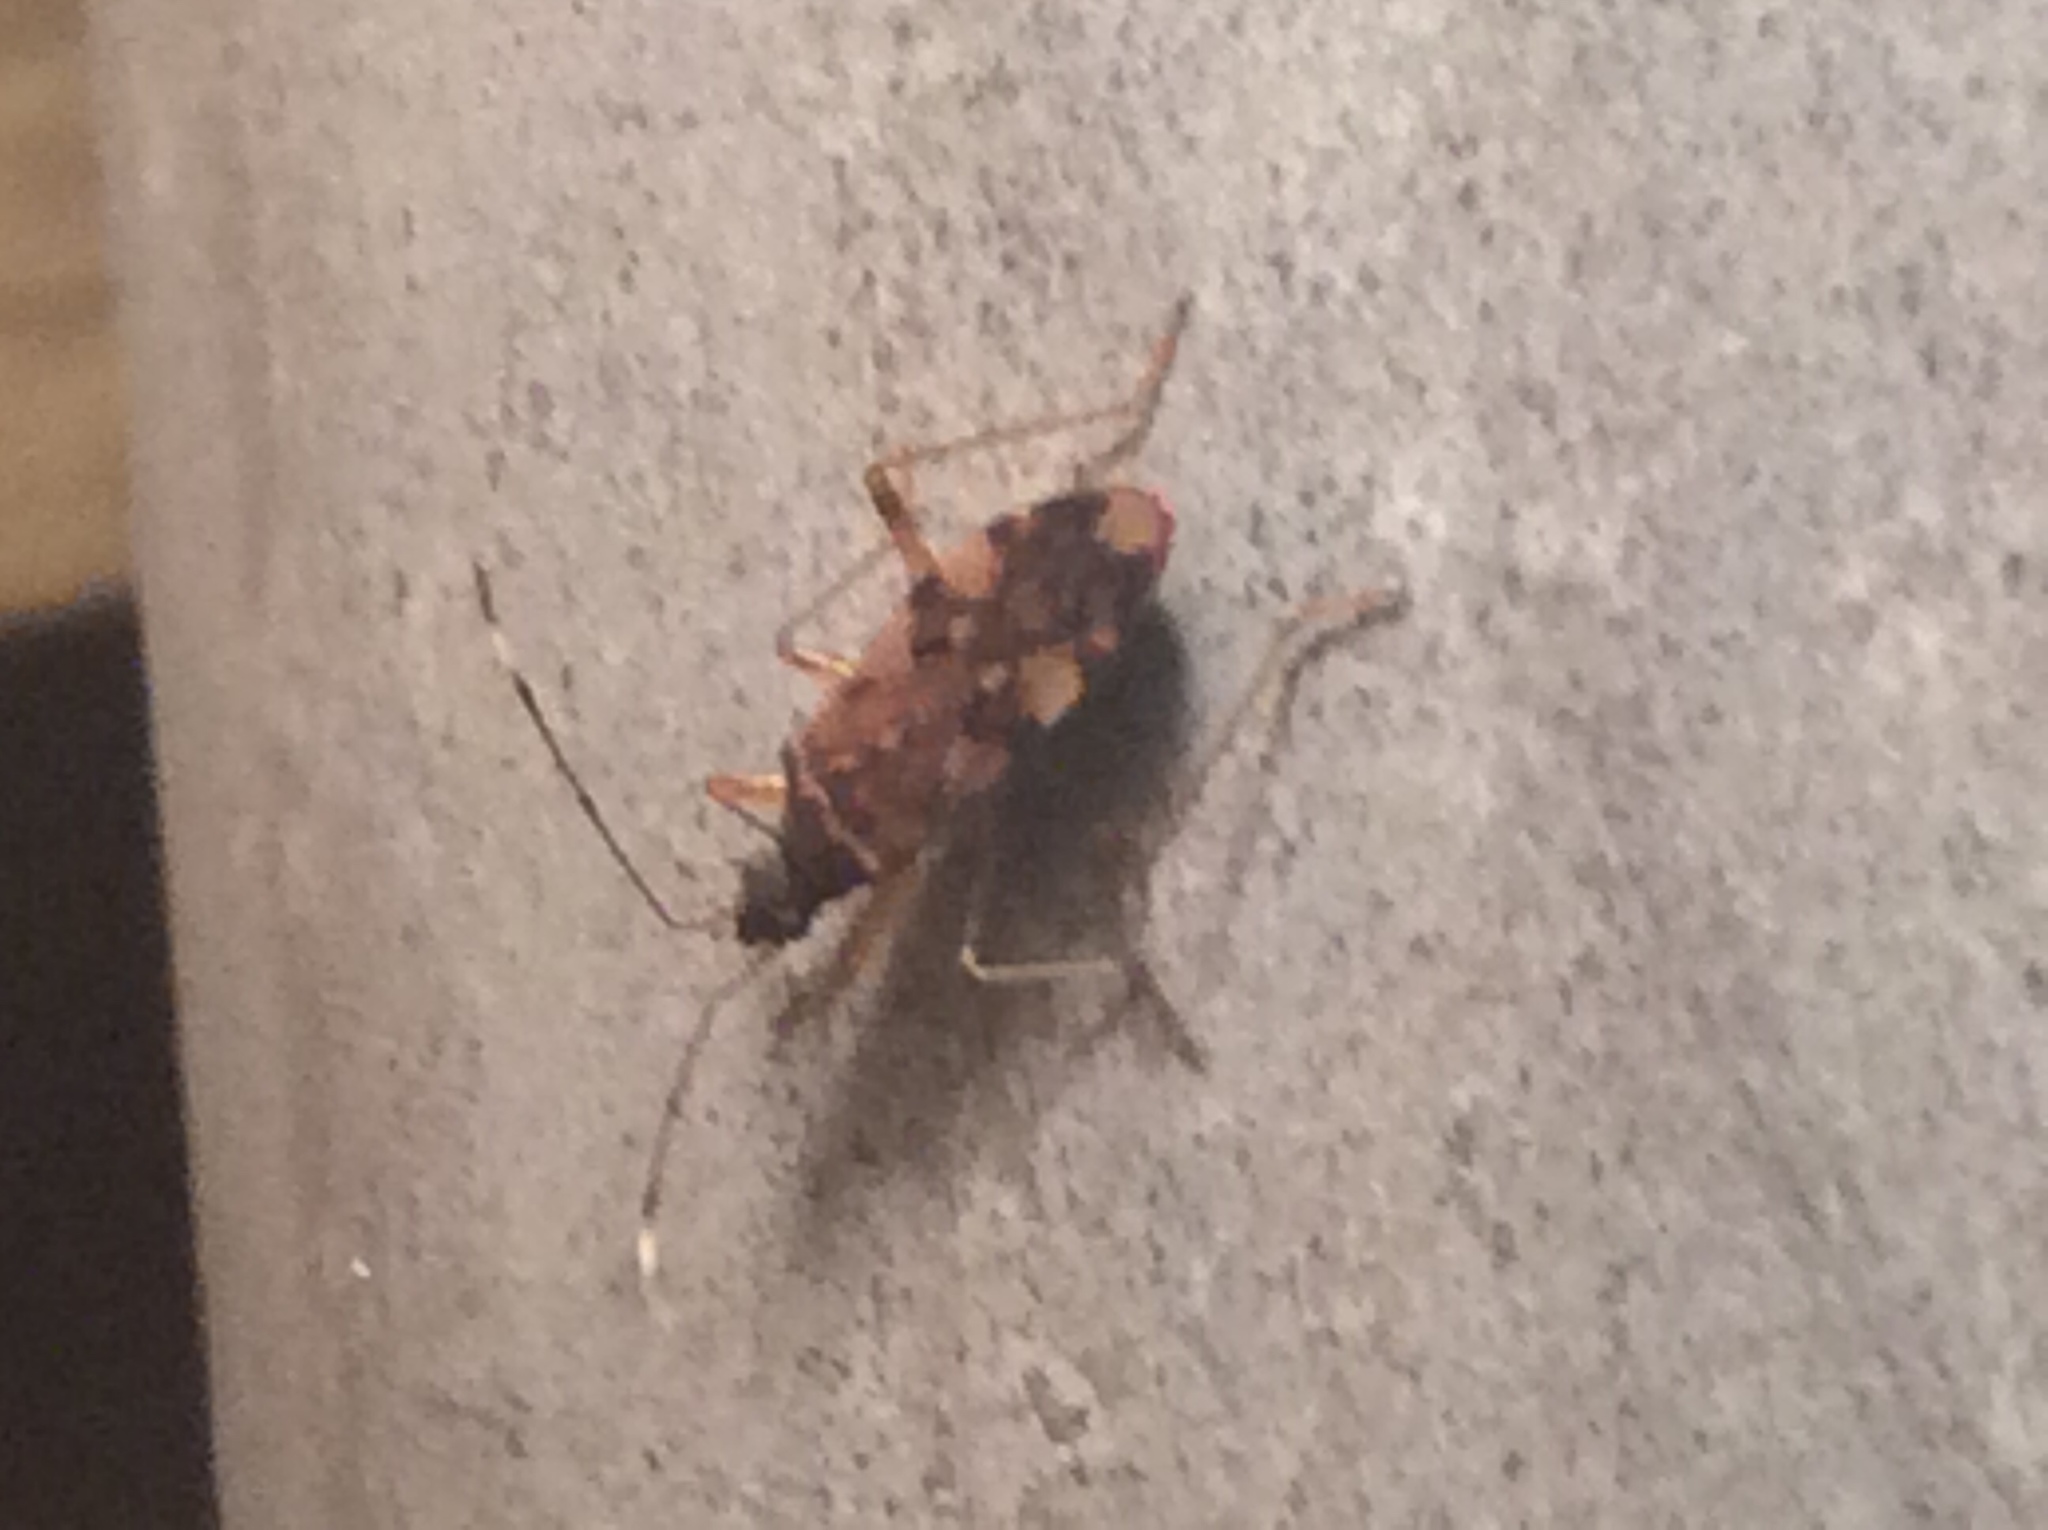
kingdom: Animalia
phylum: Arthropoda
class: Insecta
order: Hemiptera
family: Rhyparochromidae
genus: Ozophora
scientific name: Ozophora picturata
